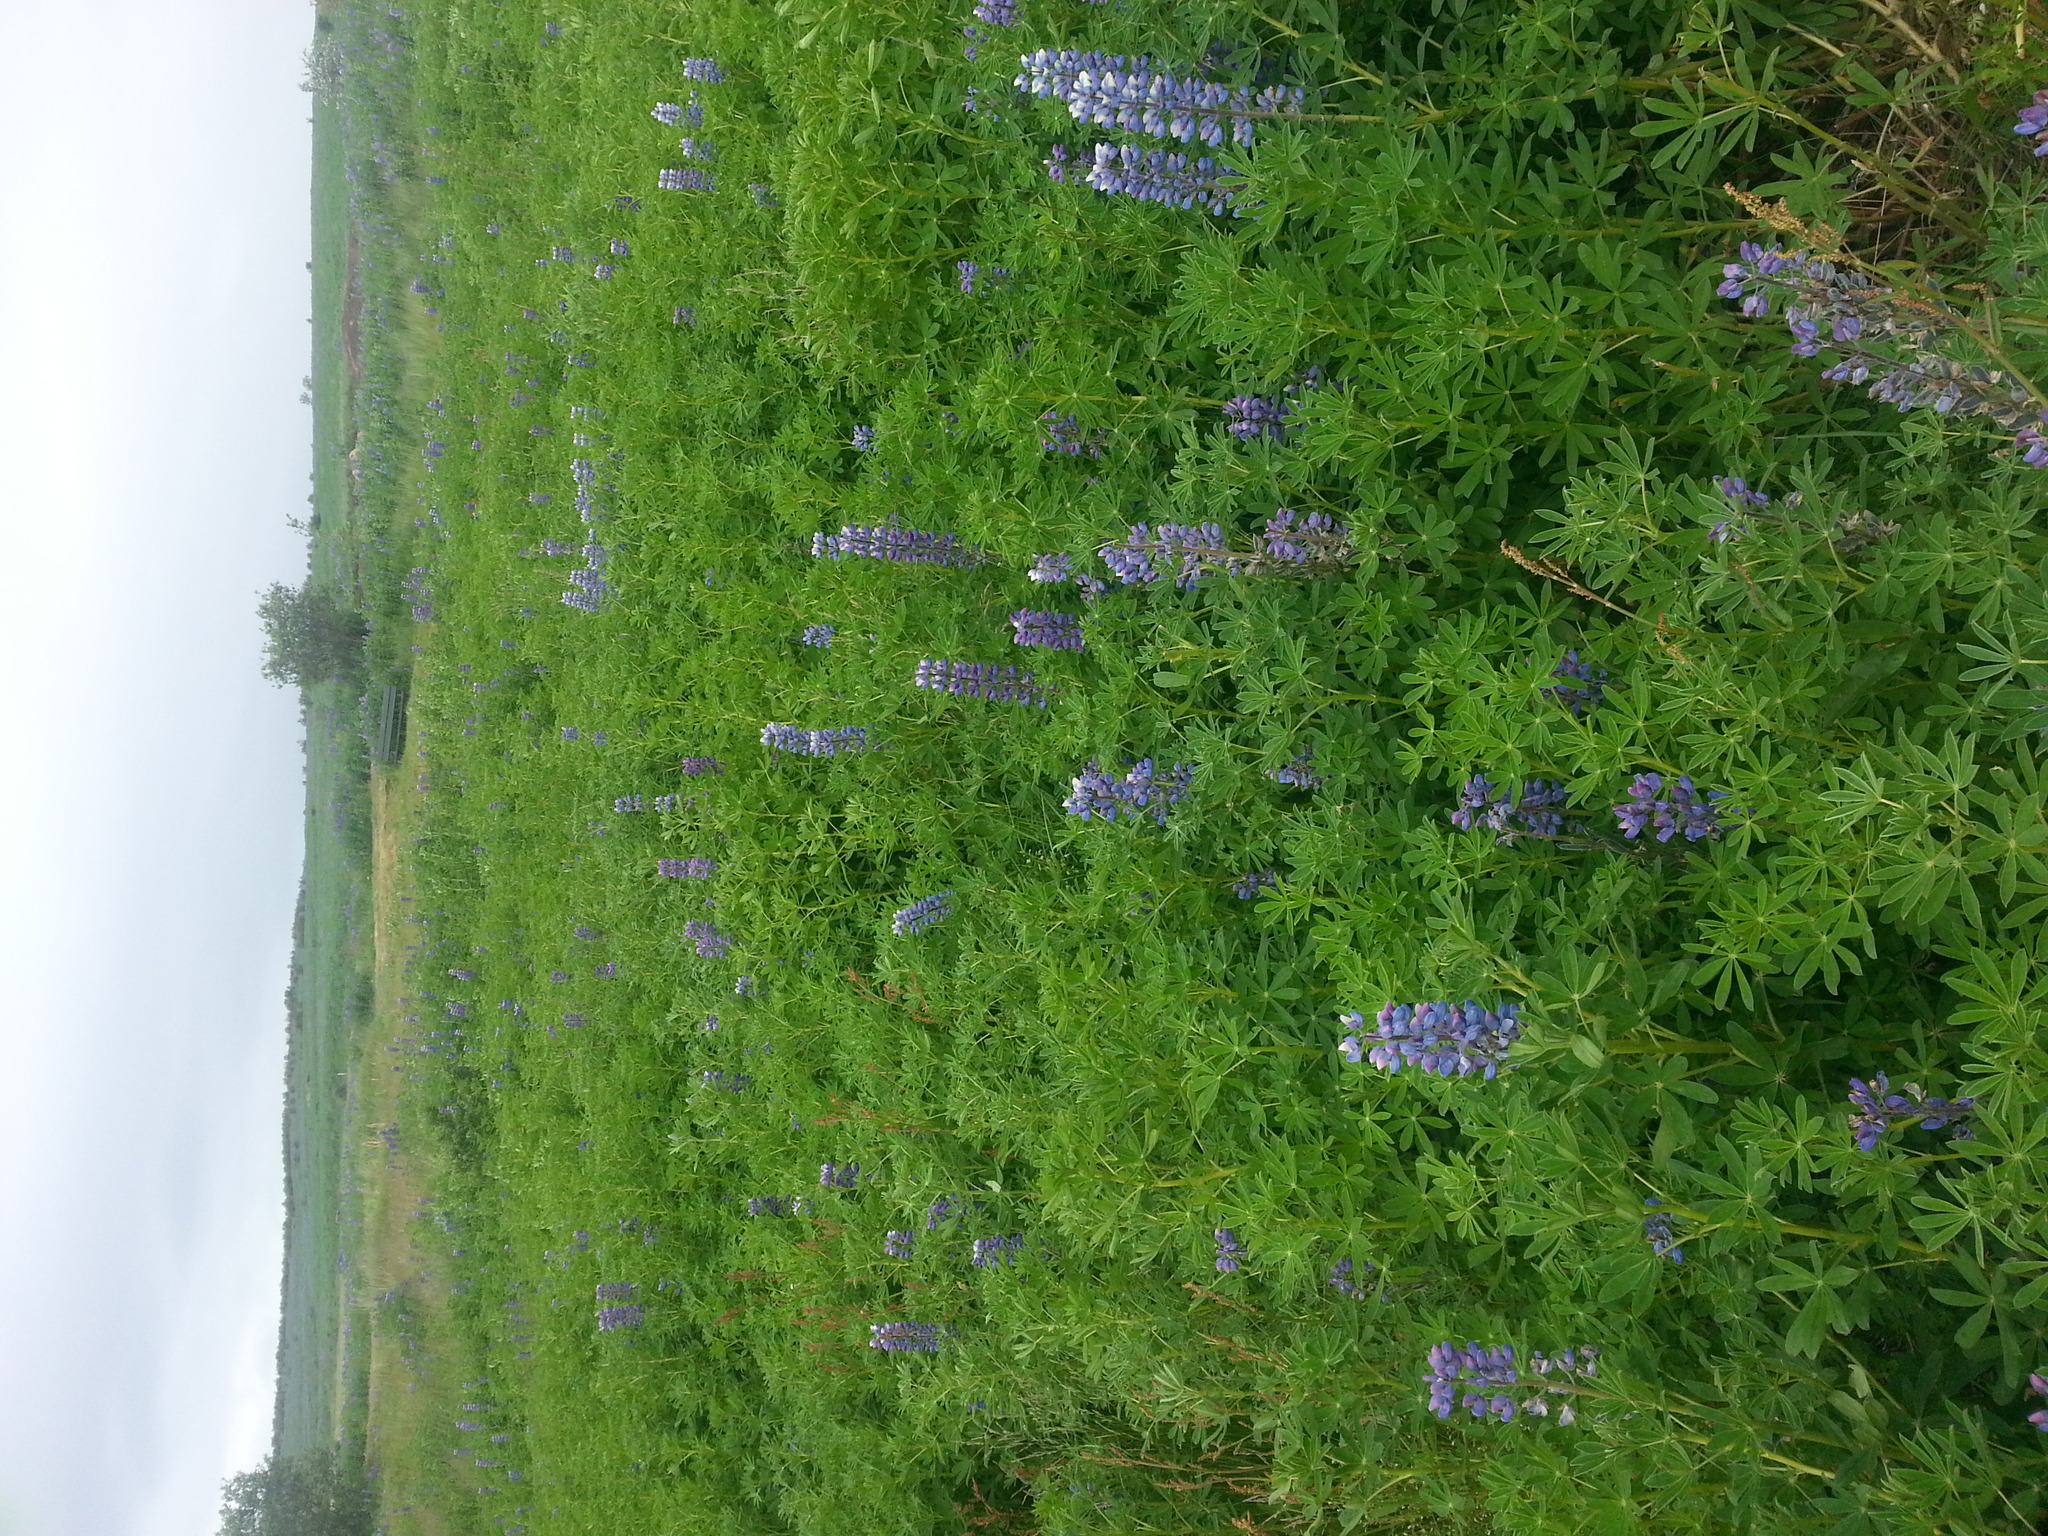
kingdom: Plantae
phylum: Tracheophyta
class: Magnoliopsida
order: Fabales
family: Fabaceae
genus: Lupinus
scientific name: Lupinus nootkatensis
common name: Nootka lupine
